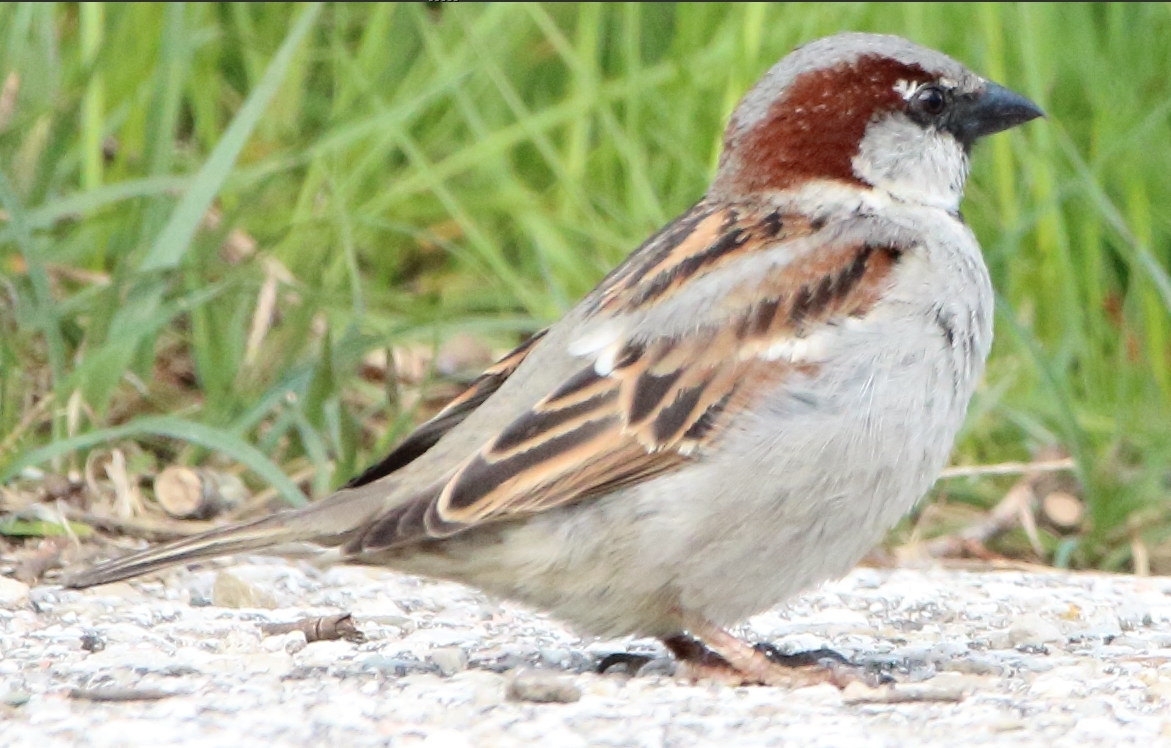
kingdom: Animalia
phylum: Chordata
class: Aves
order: Passeriformes
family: Passeridae
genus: Passer
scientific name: Passer domesticus
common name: House sparrow
